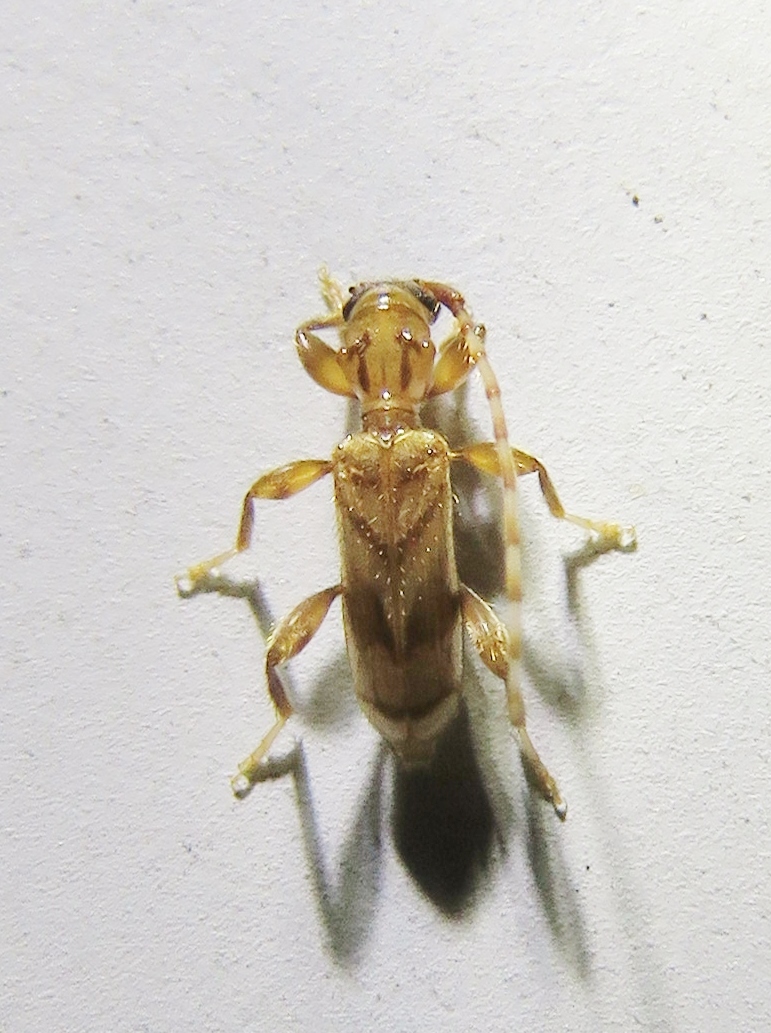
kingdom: Animalia
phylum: Arthropoda
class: Insecta
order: Coleoptera
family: Cerambycidae
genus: Obrium
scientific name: Obrium maculatum
